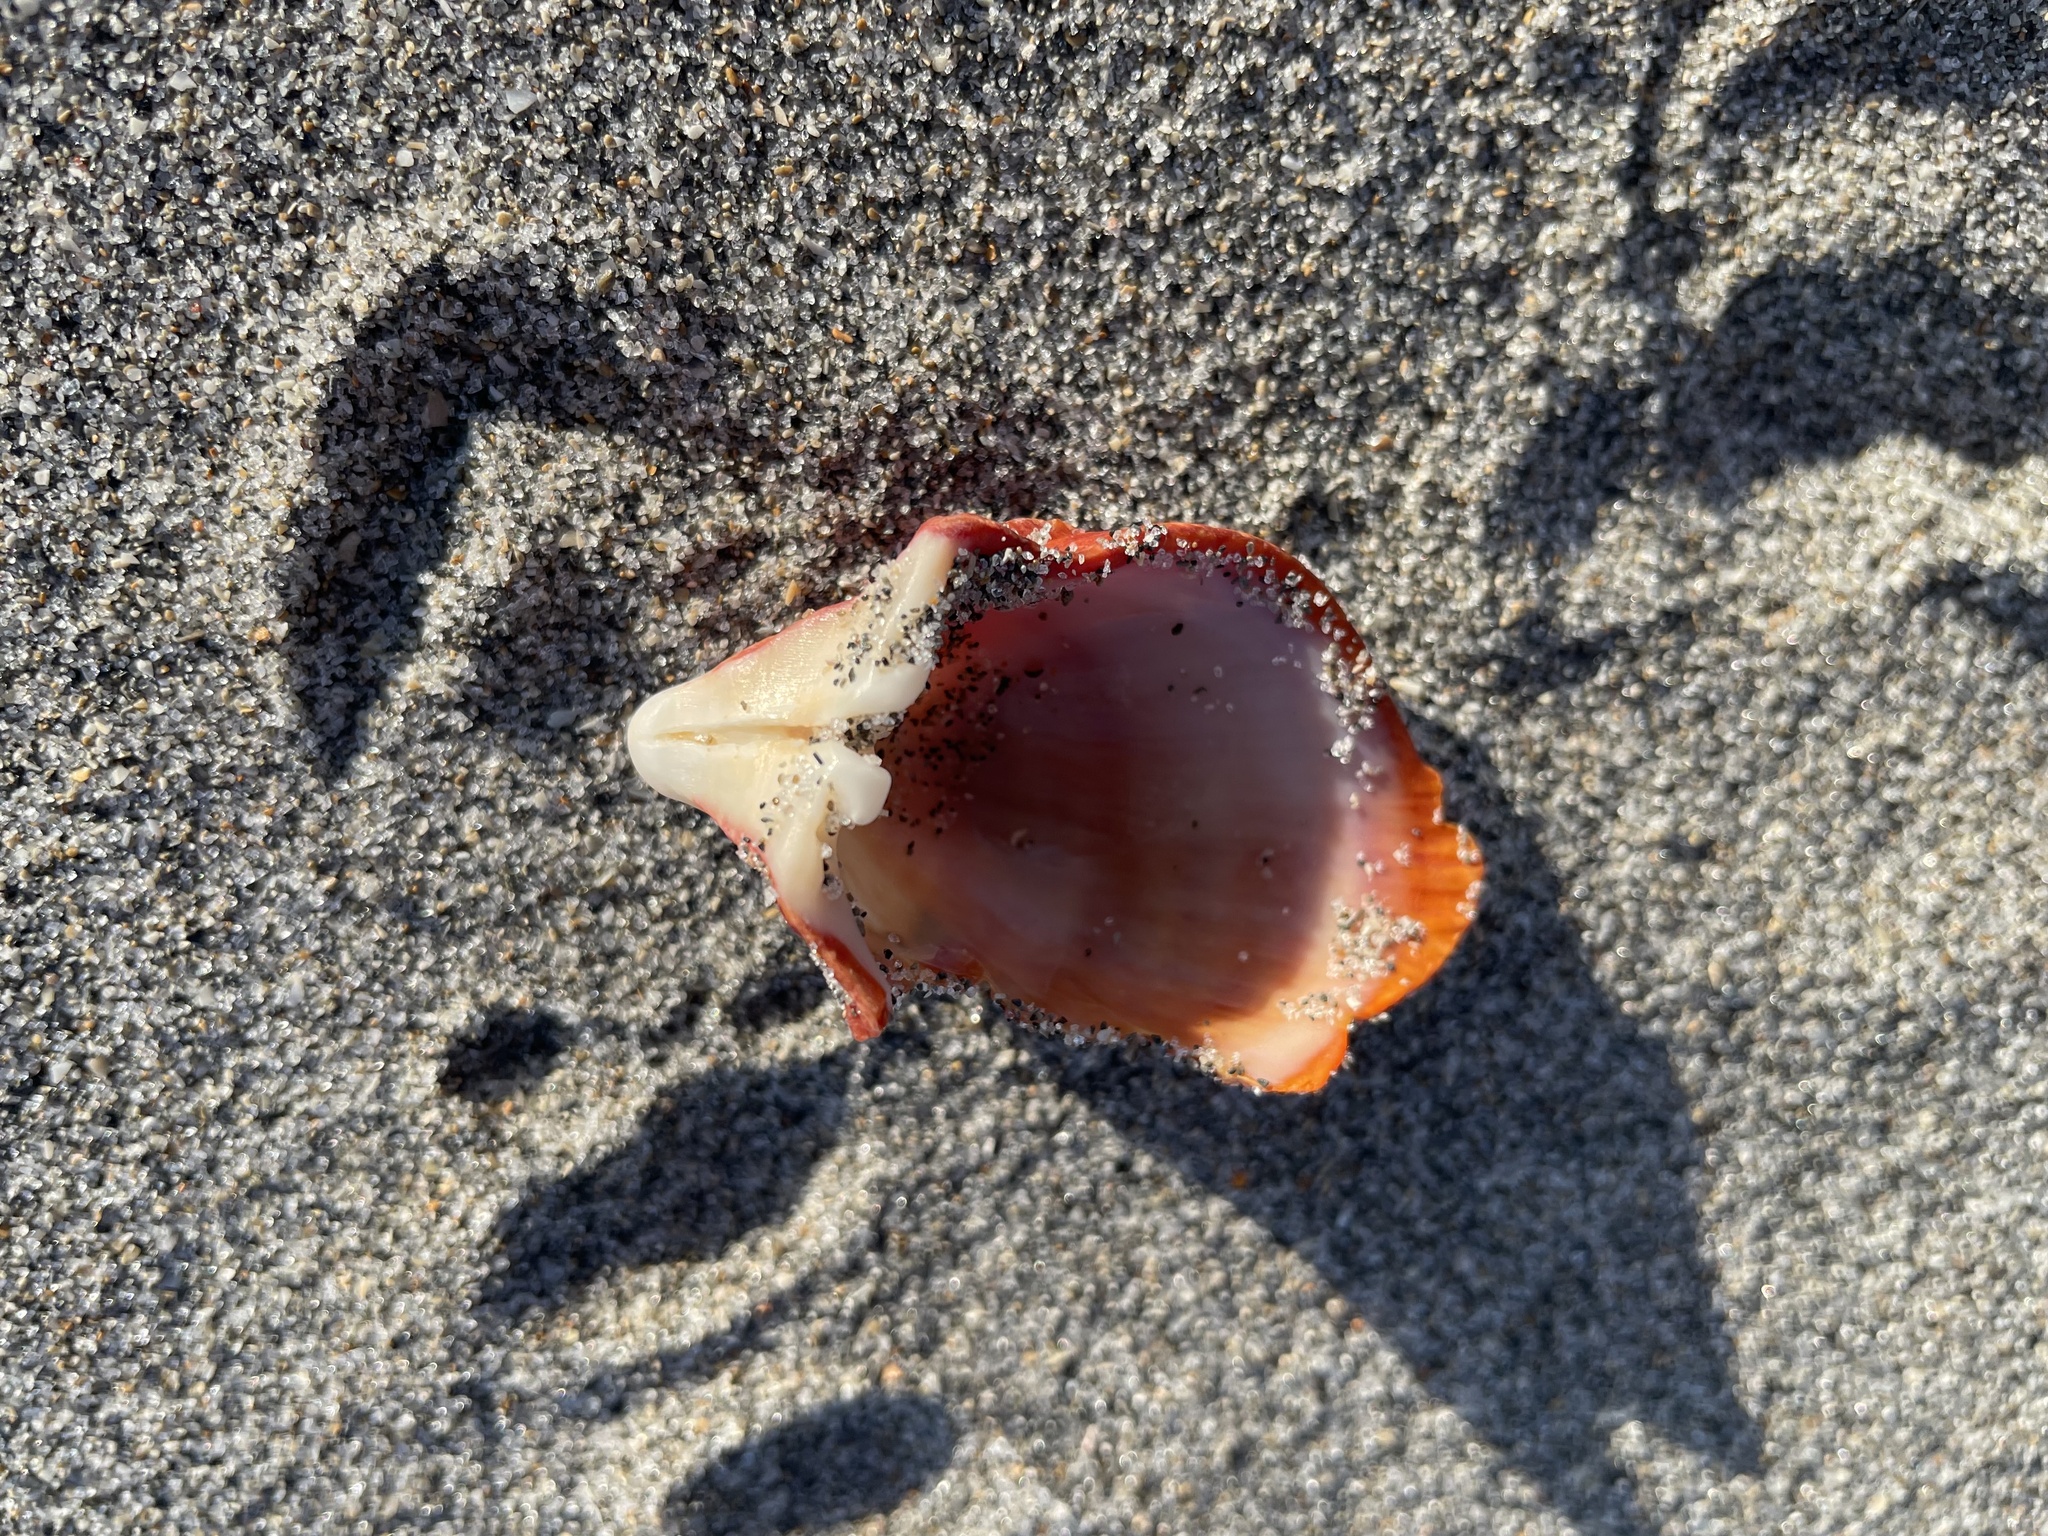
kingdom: Animalia
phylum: Mollusca
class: Bivalvia
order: Pectinida
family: Spondylidae
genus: Spondylus
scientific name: Spondylus tenuis
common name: Digitate thorny oyster
